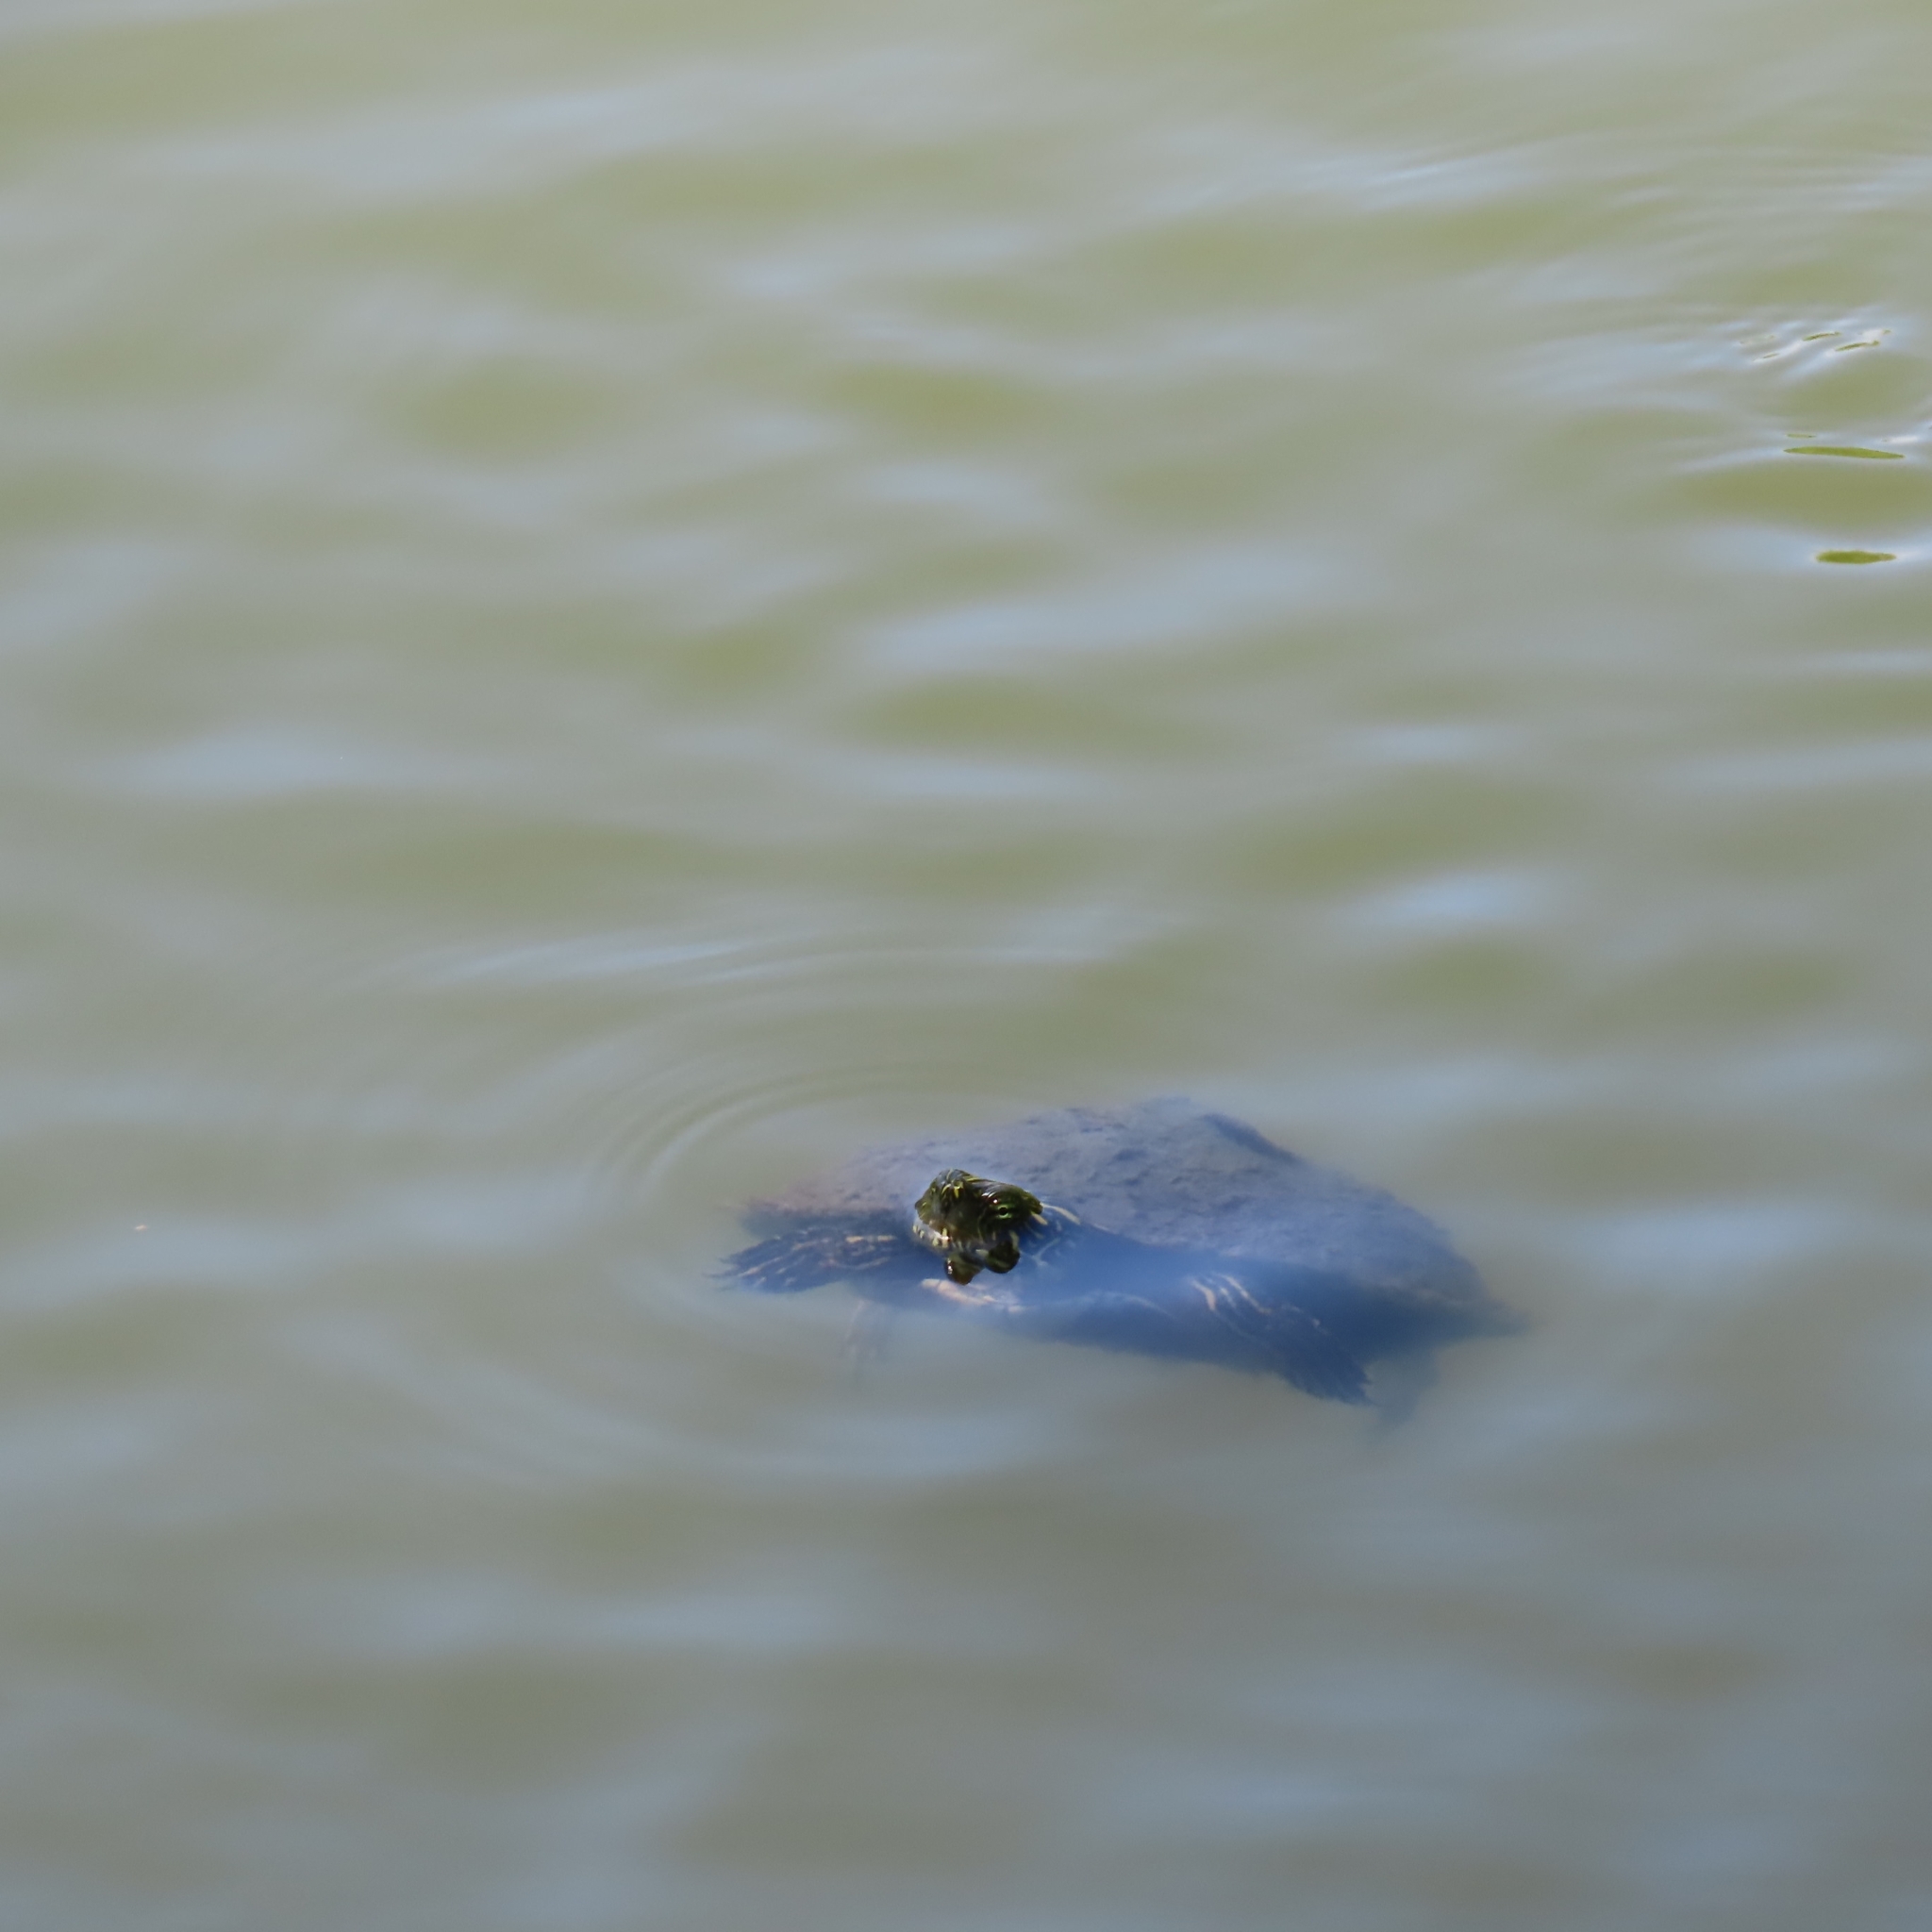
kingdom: Animalia
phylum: Chordata
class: Testudines
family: Emydidae
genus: Pseudemys
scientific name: Pseudemys texana
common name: Texas river cooter
